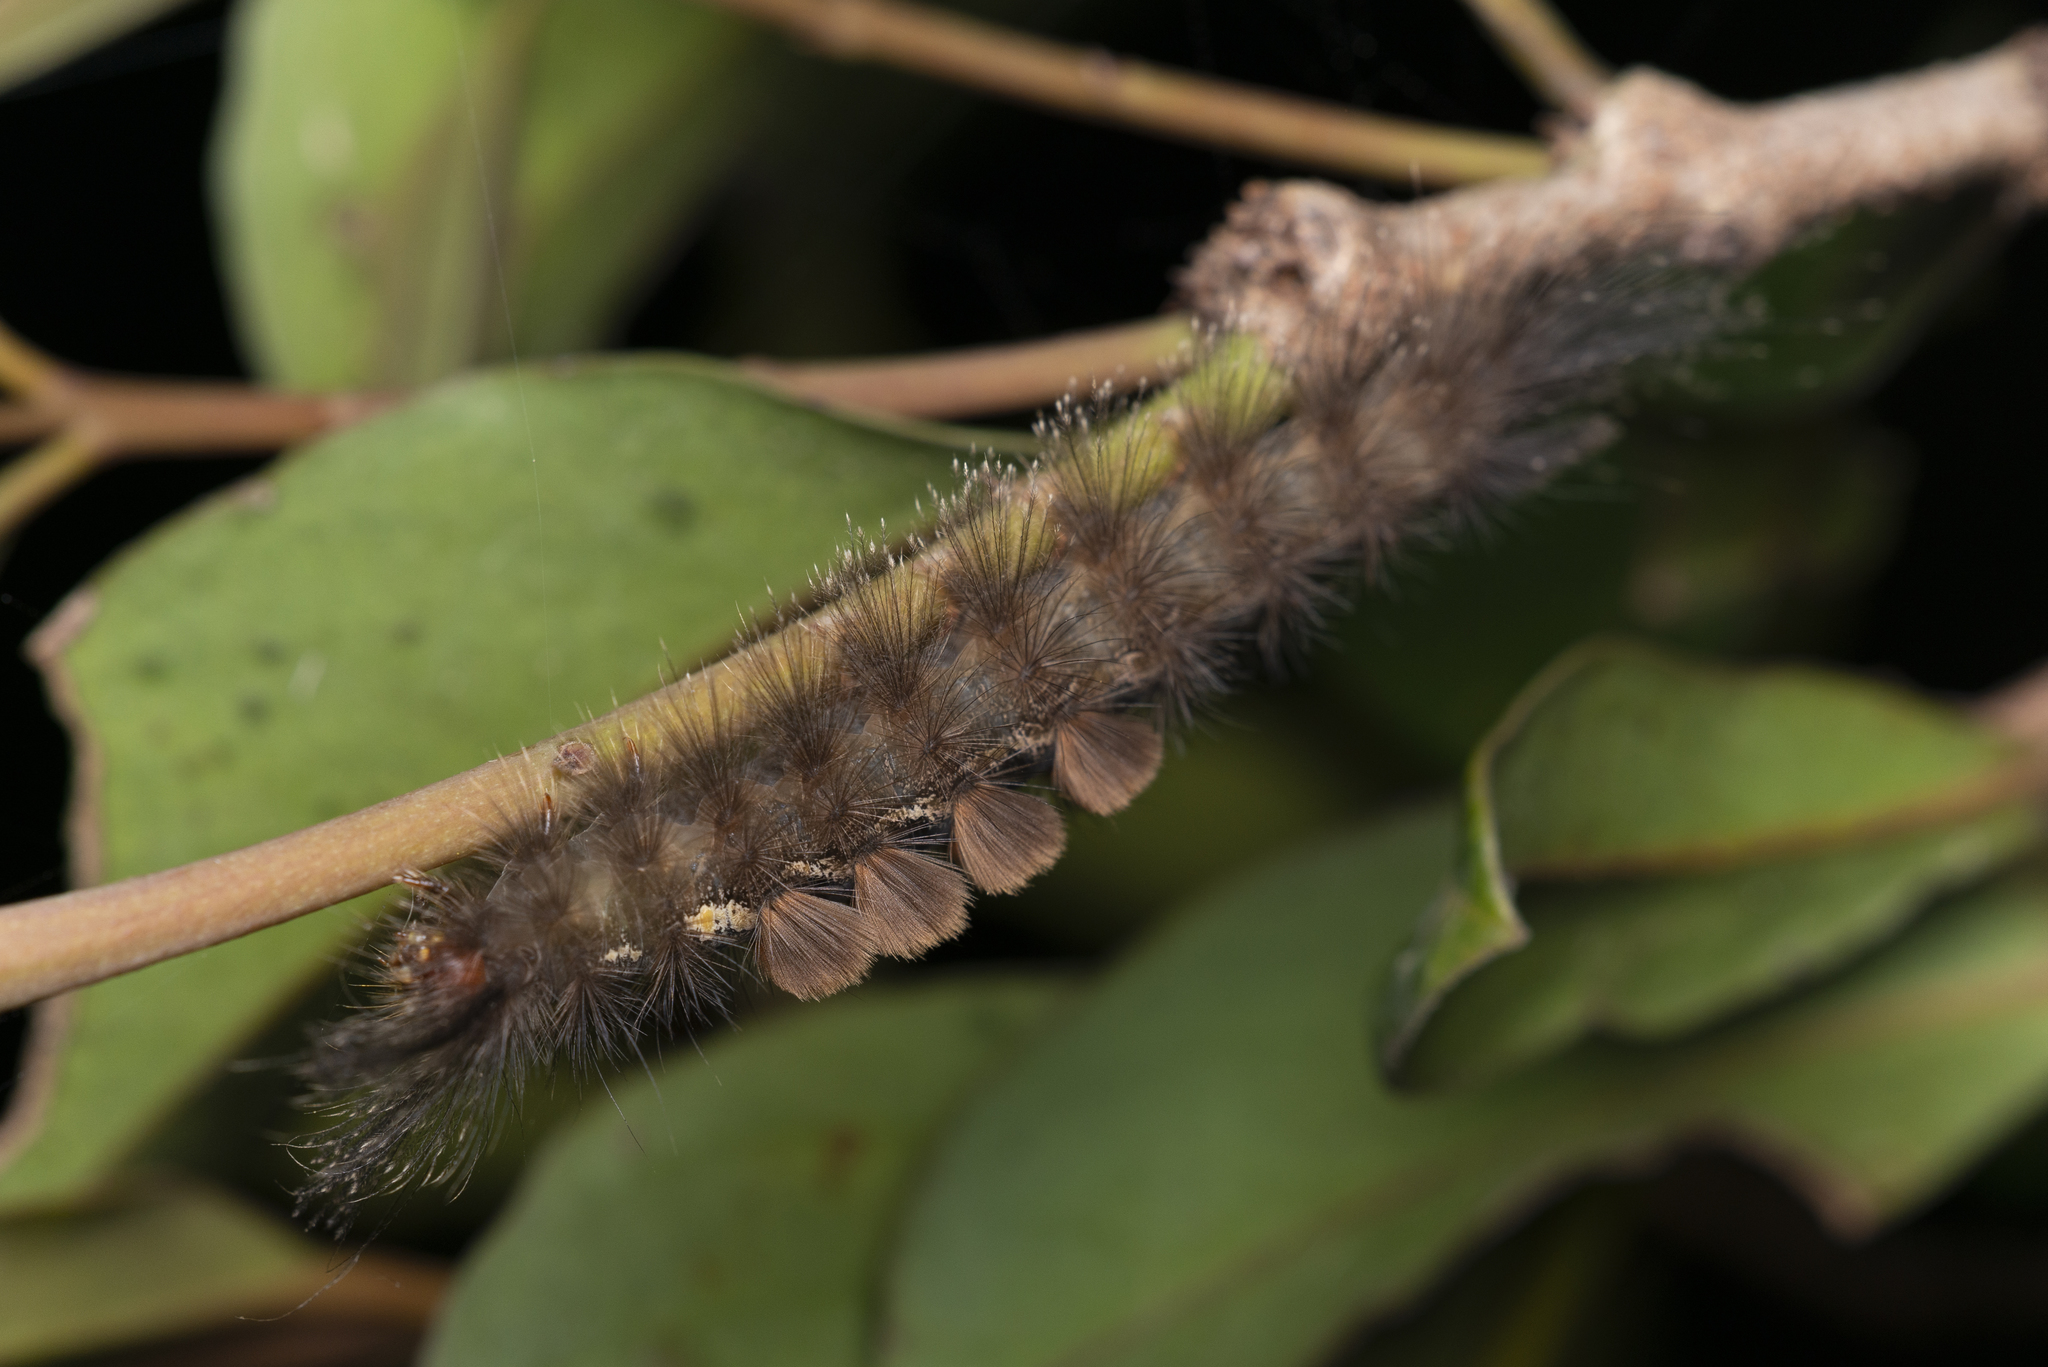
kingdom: Animalia
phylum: Arthropoda
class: Insecta
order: Lepidoptera
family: Erebidae
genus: Dasychira
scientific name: Dasychira chekiangensis
